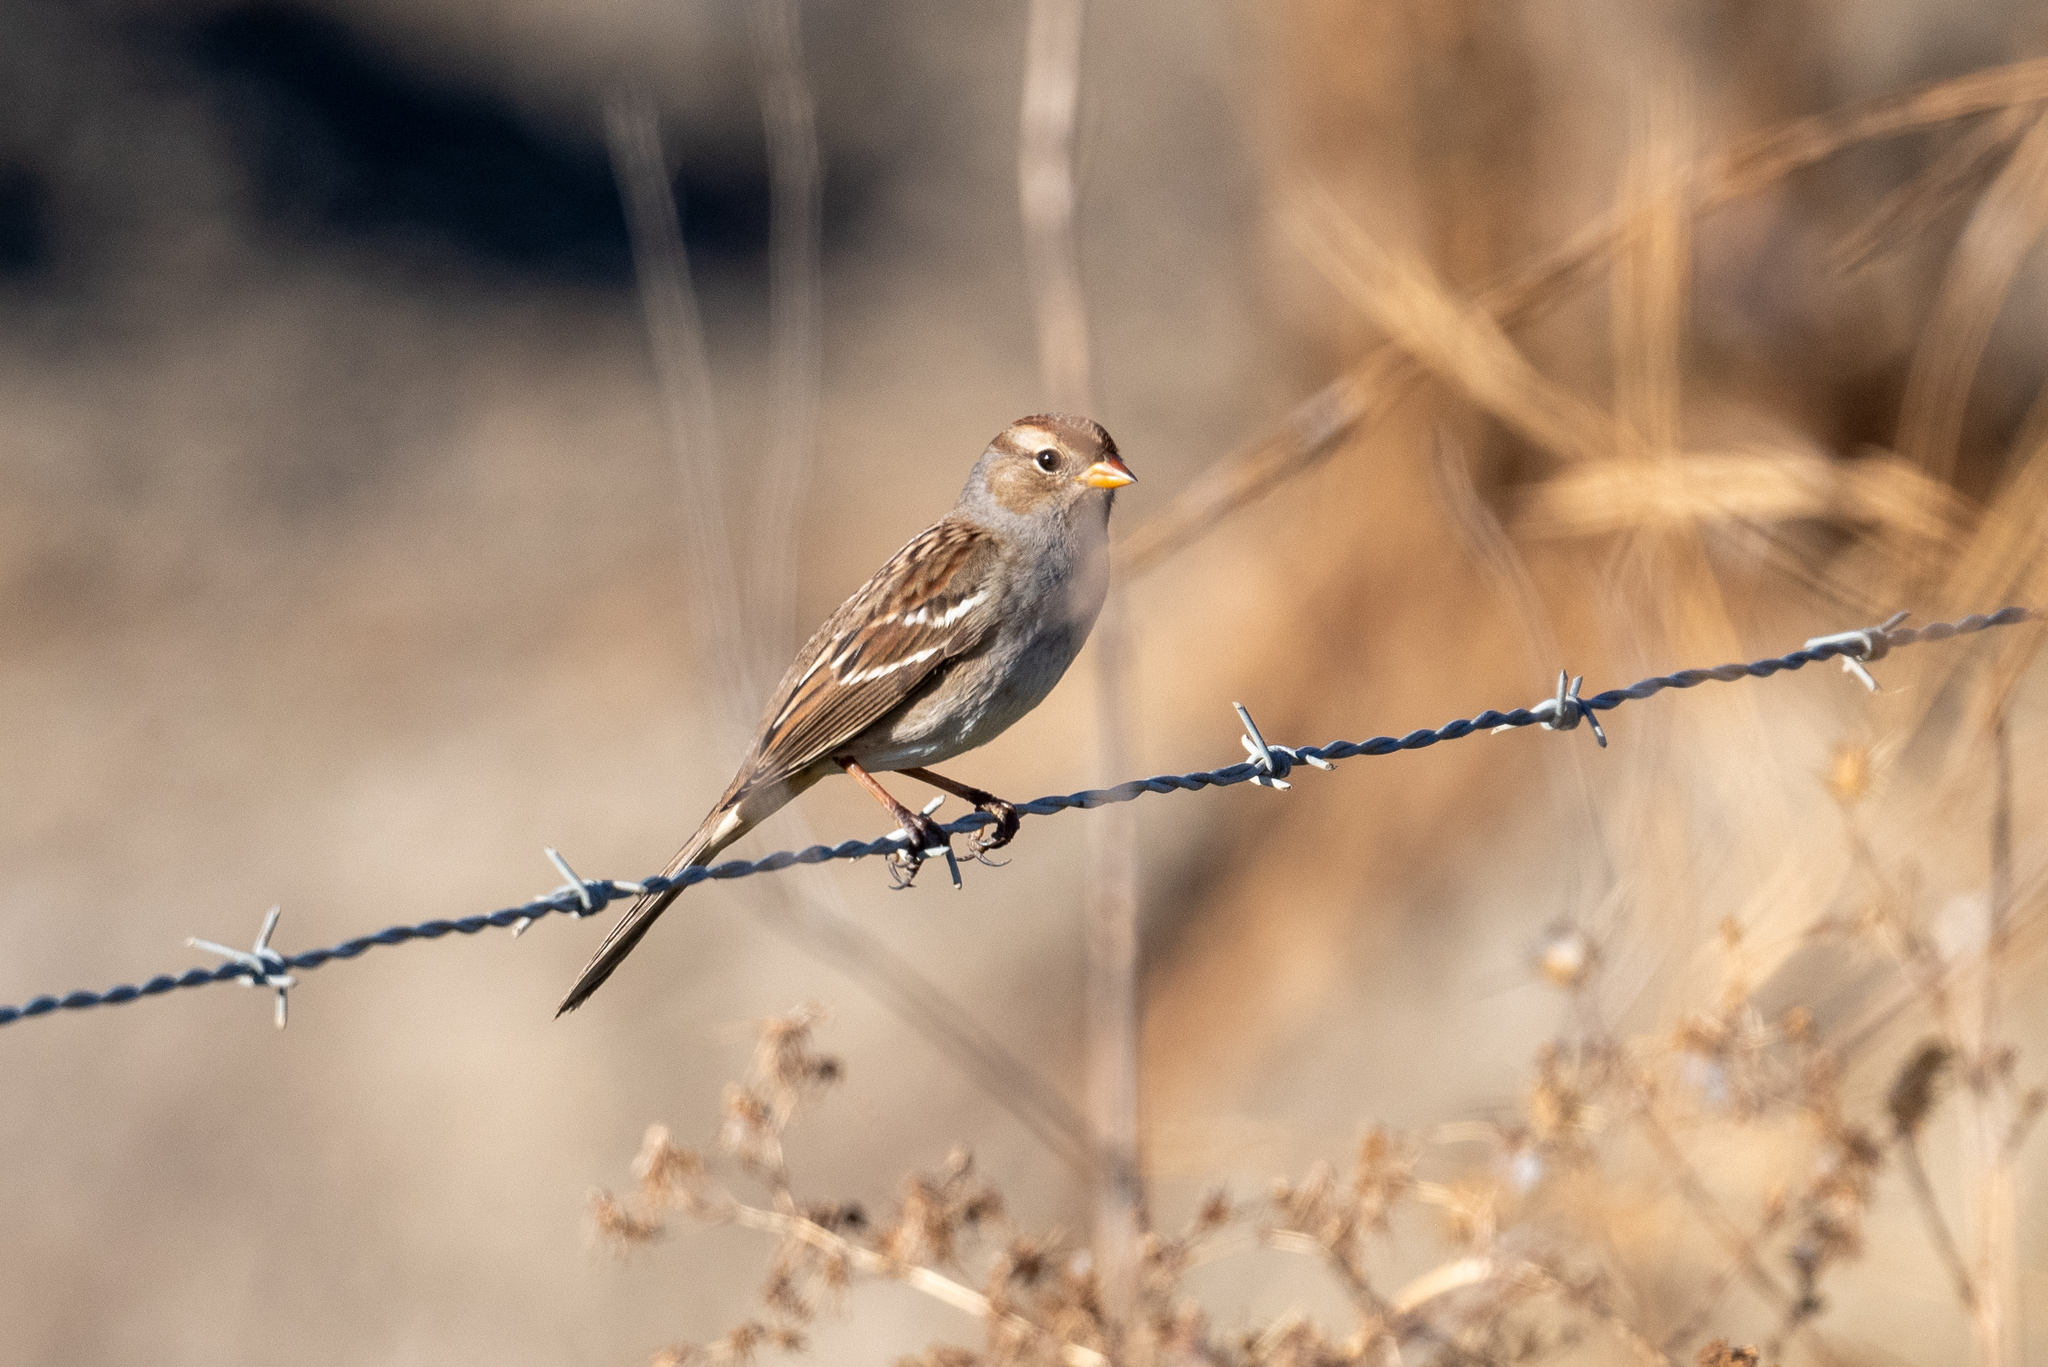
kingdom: Animalia
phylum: Chordata
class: Aves
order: Passeriformes
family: Passerellidae
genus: Zonotrichia
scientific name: Zonotrichia leucophrys
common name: White-crowned sparrow
